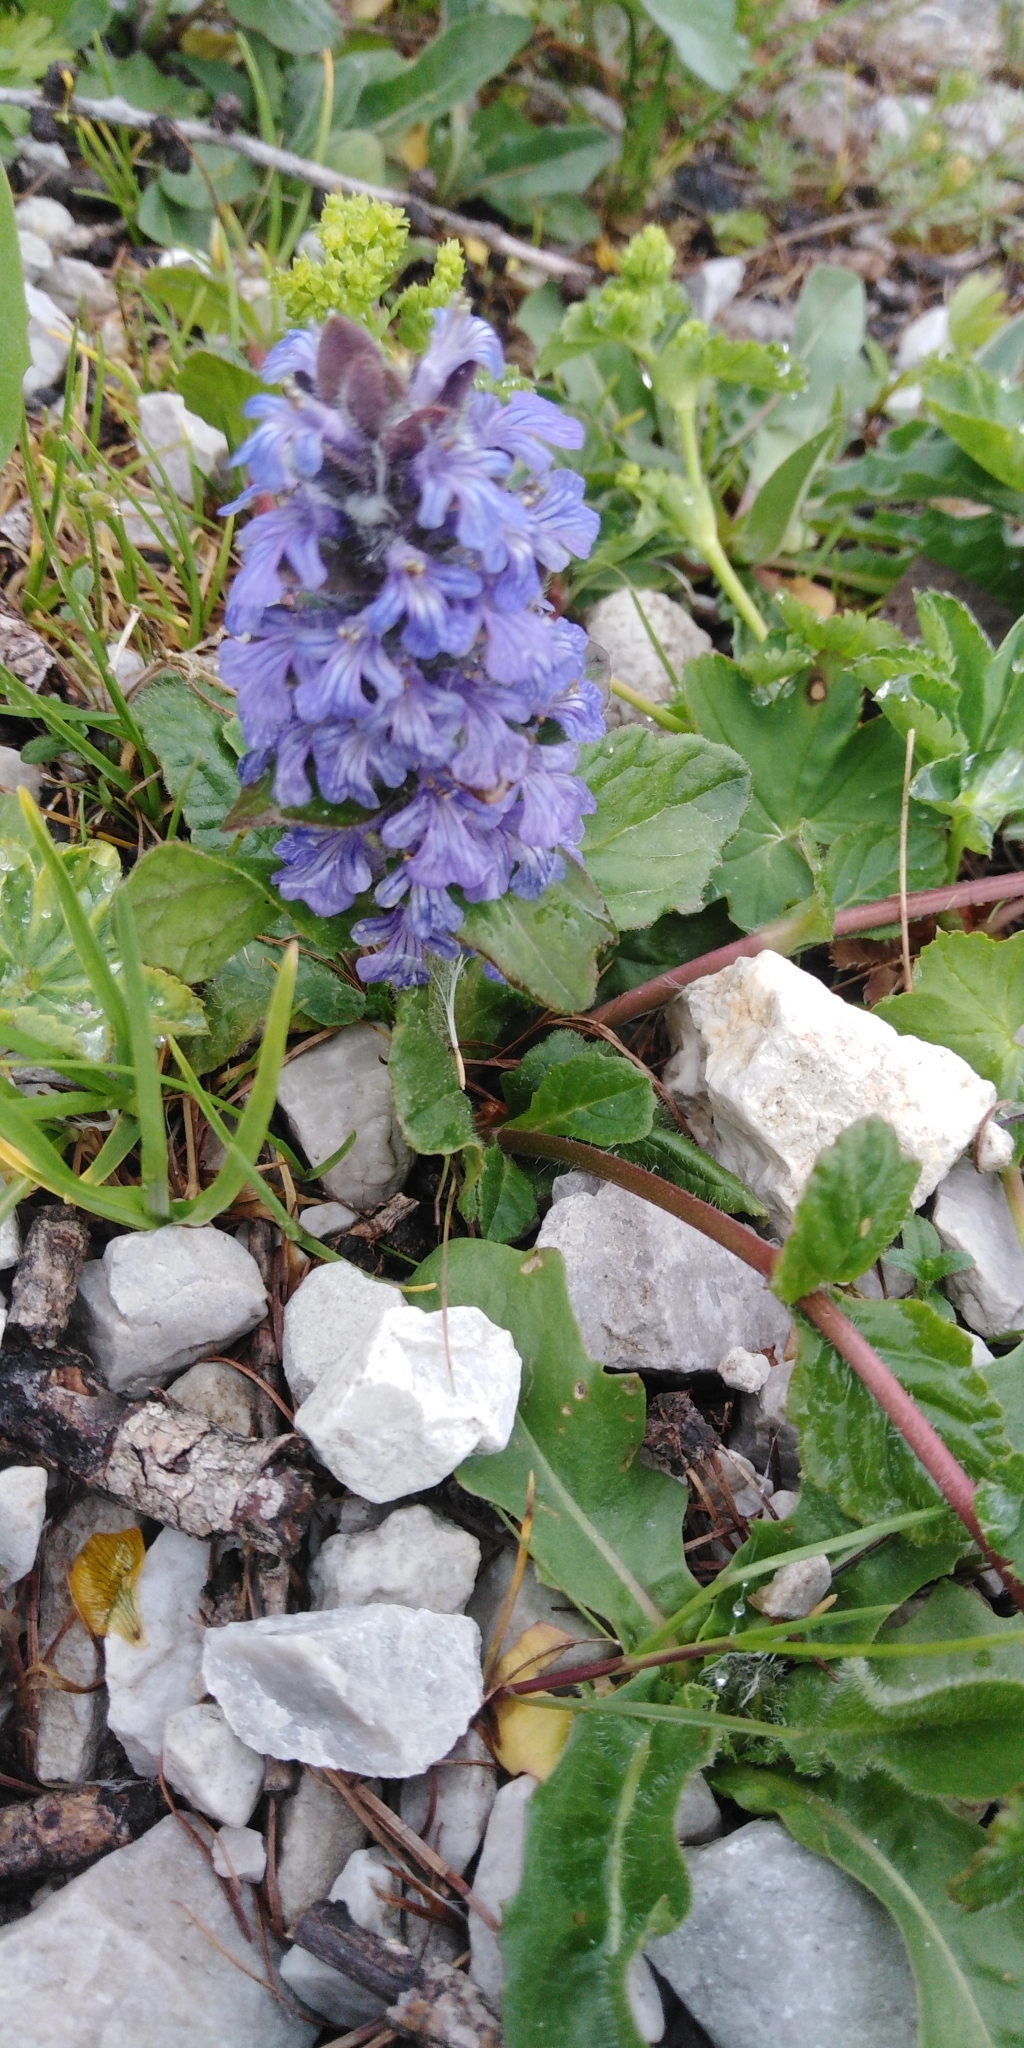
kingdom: Plantae
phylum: Tracheophyta
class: Magnoliopsida
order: Lamiales
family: Lamiaceae
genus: Ajuga
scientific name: Ajuga reptans
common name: Bugle
